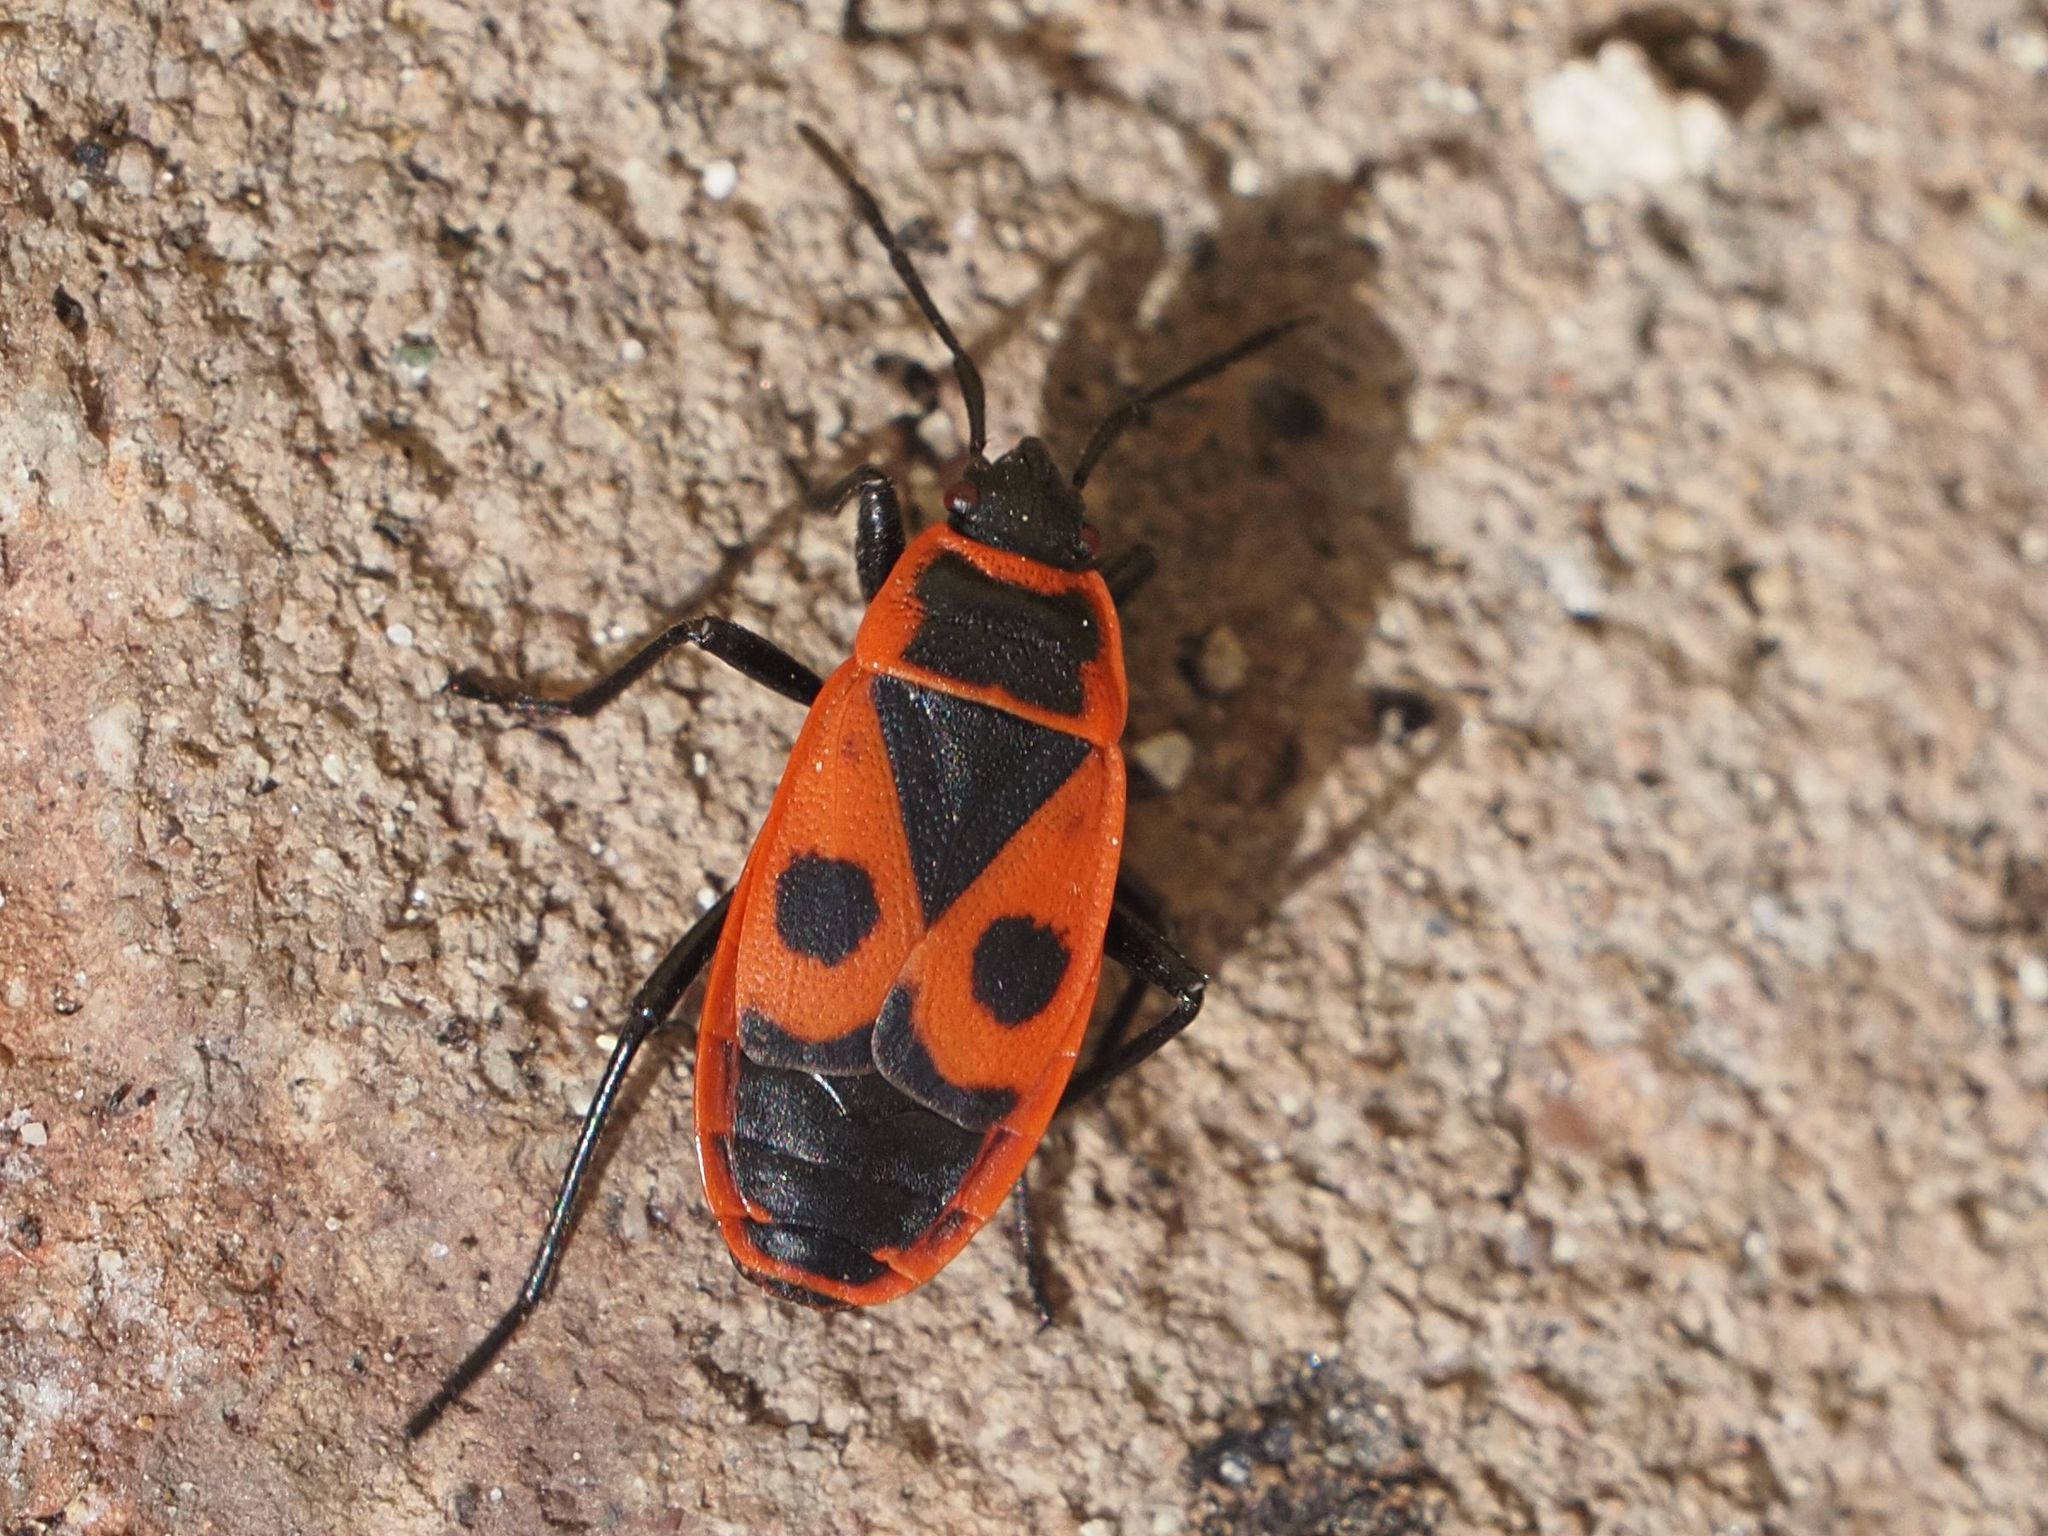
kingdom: Animalia
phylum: Arthropoda
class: Insecta
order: Hemiptera
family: Pyrrhocoridae
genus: Pyrrhocoris
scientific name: Pyrrhocoris apterus
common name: Firebug
